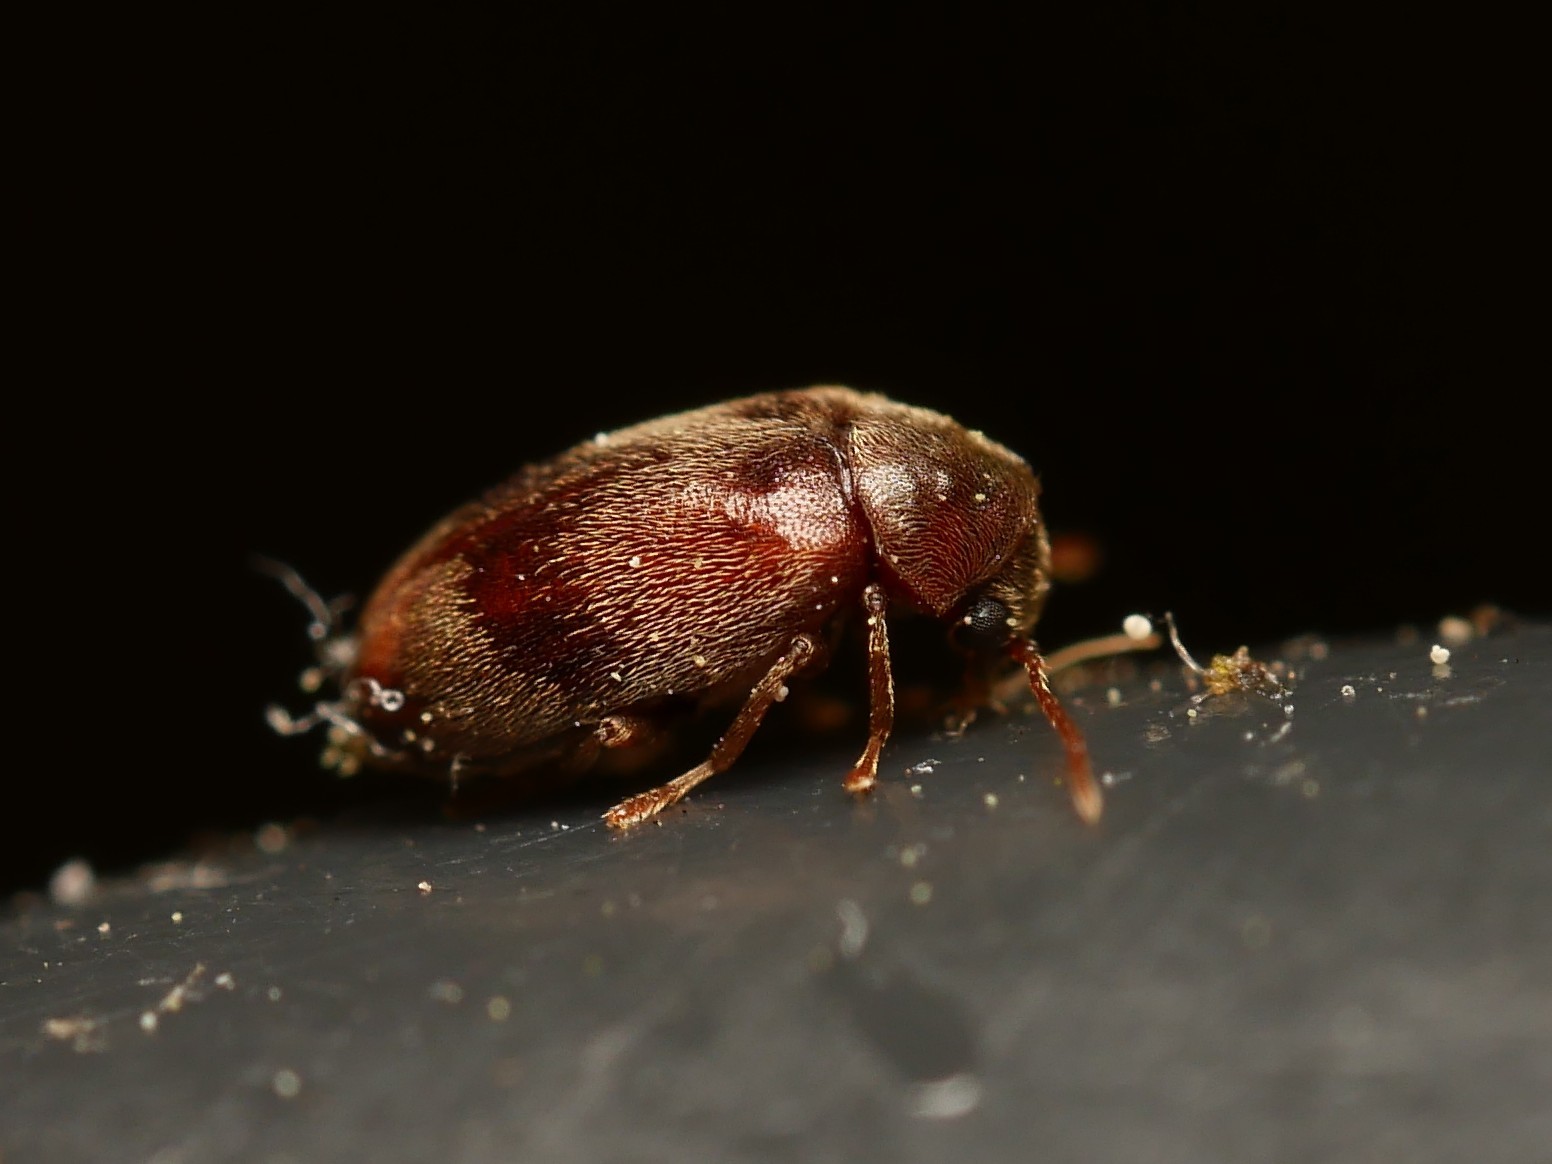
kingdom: Animalia
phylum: Arthropoda
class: Insecta
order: Coleoptera
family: Ptinidae
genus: Ochina
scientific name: Ochina ptinoides
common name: Ivy boring beetle
